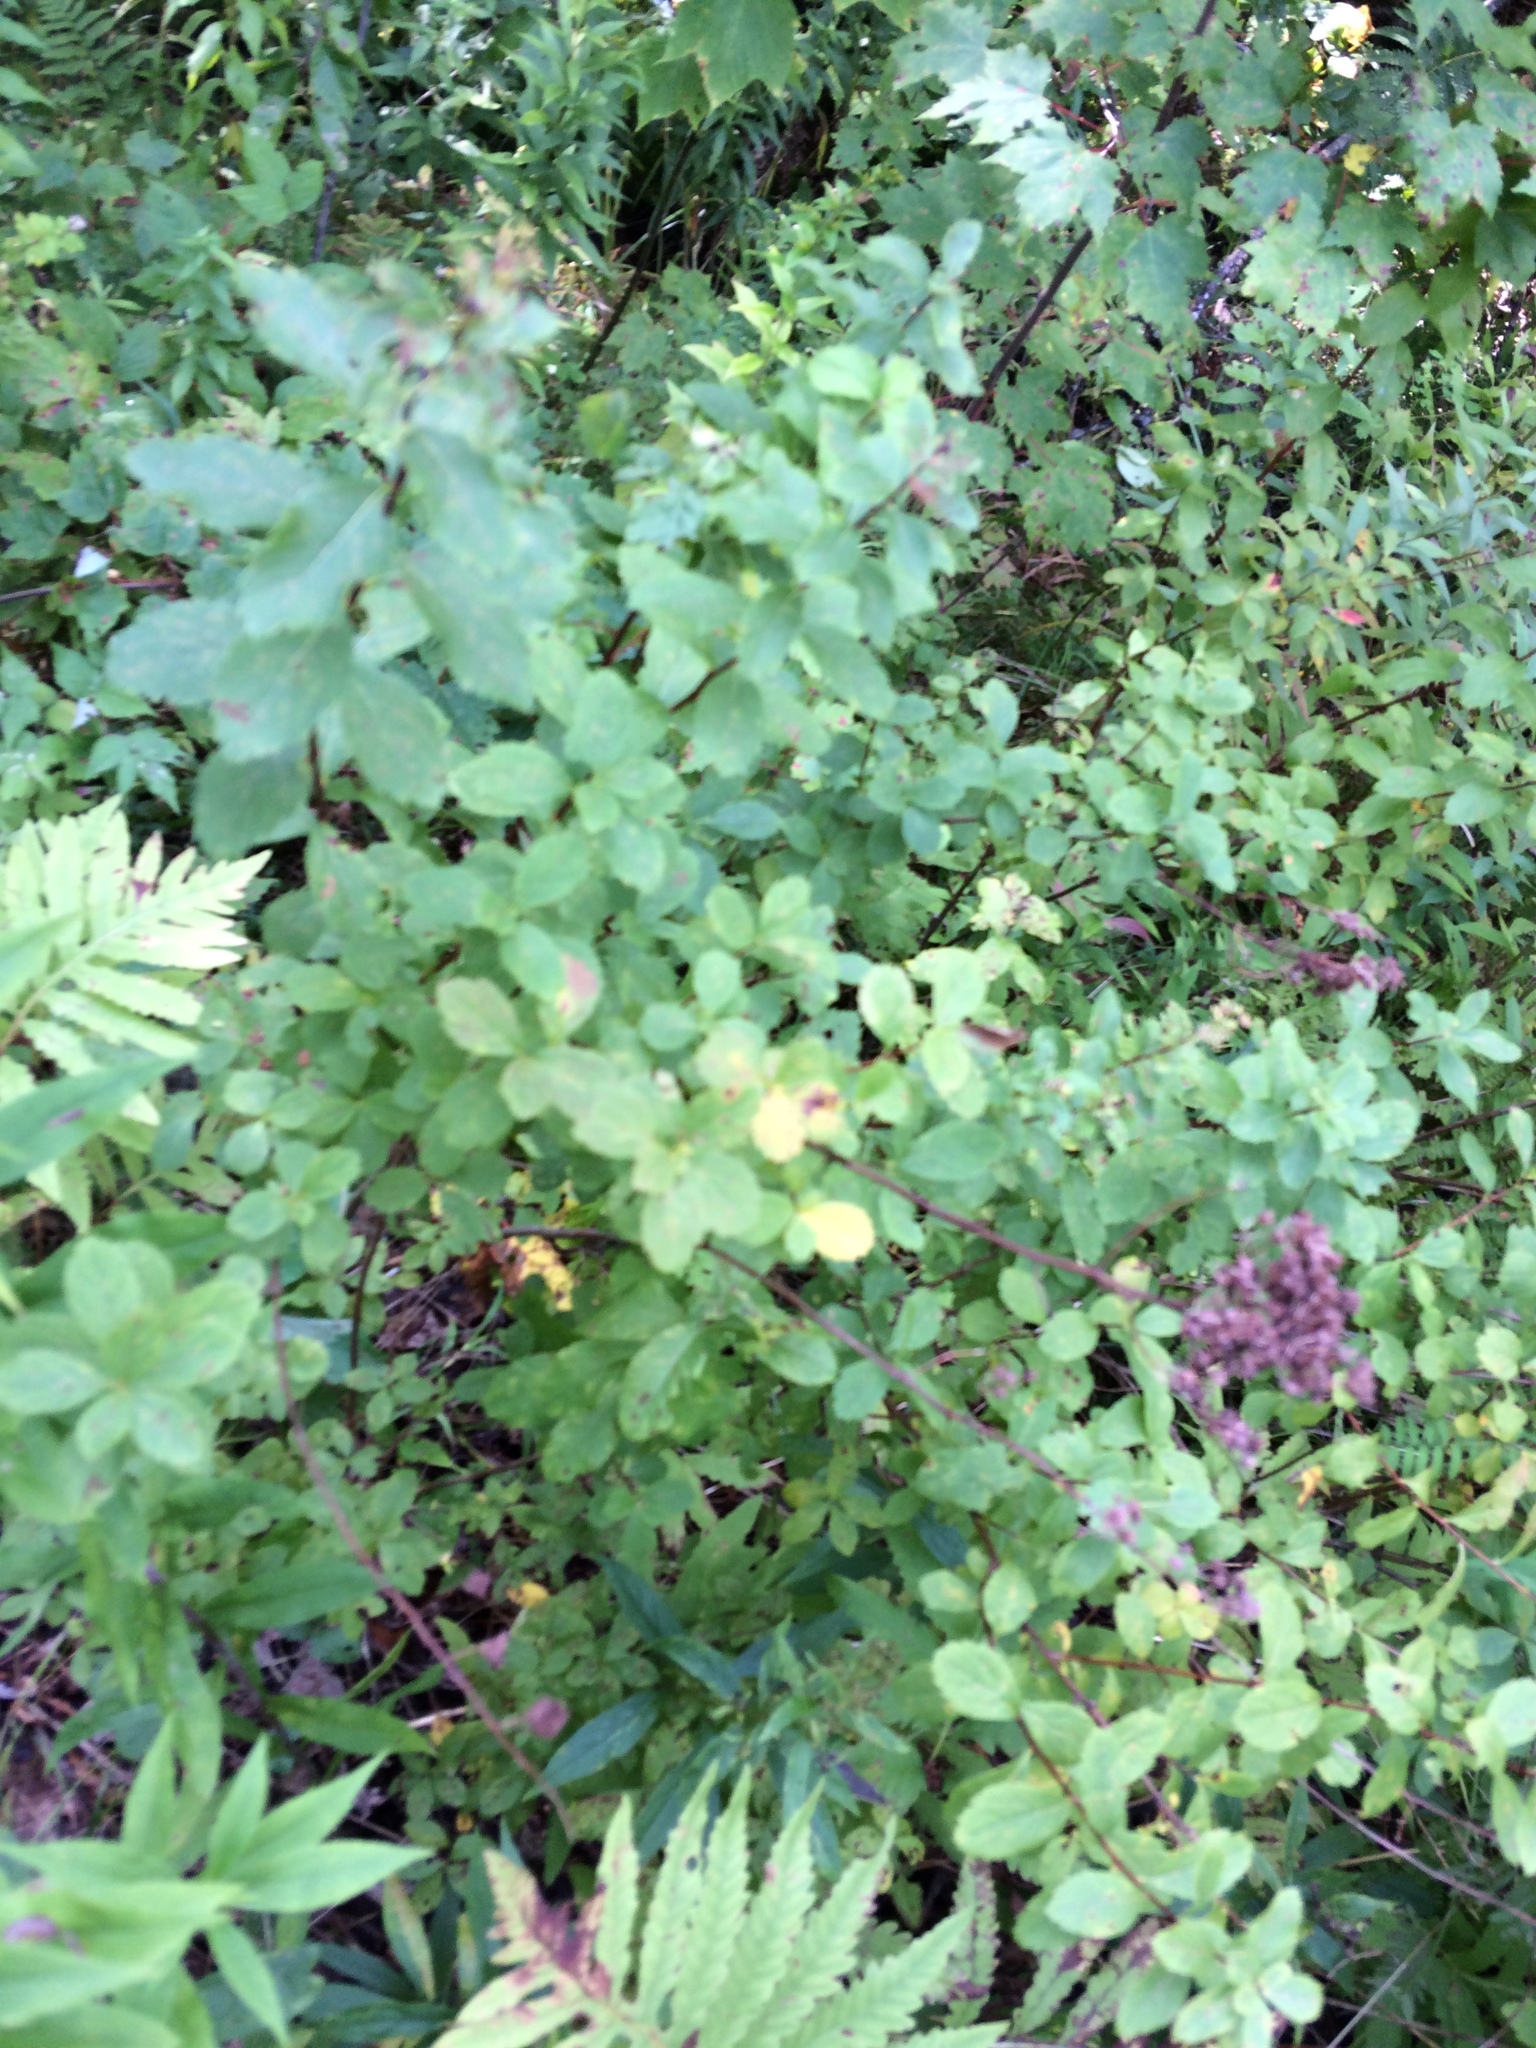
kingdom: Plantae
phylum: Tracheophyta
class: Magnoliopsida
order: Rosales
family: Rosaceae
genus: Spiraea
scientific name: Spiraea alba
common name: Pale bridewort
